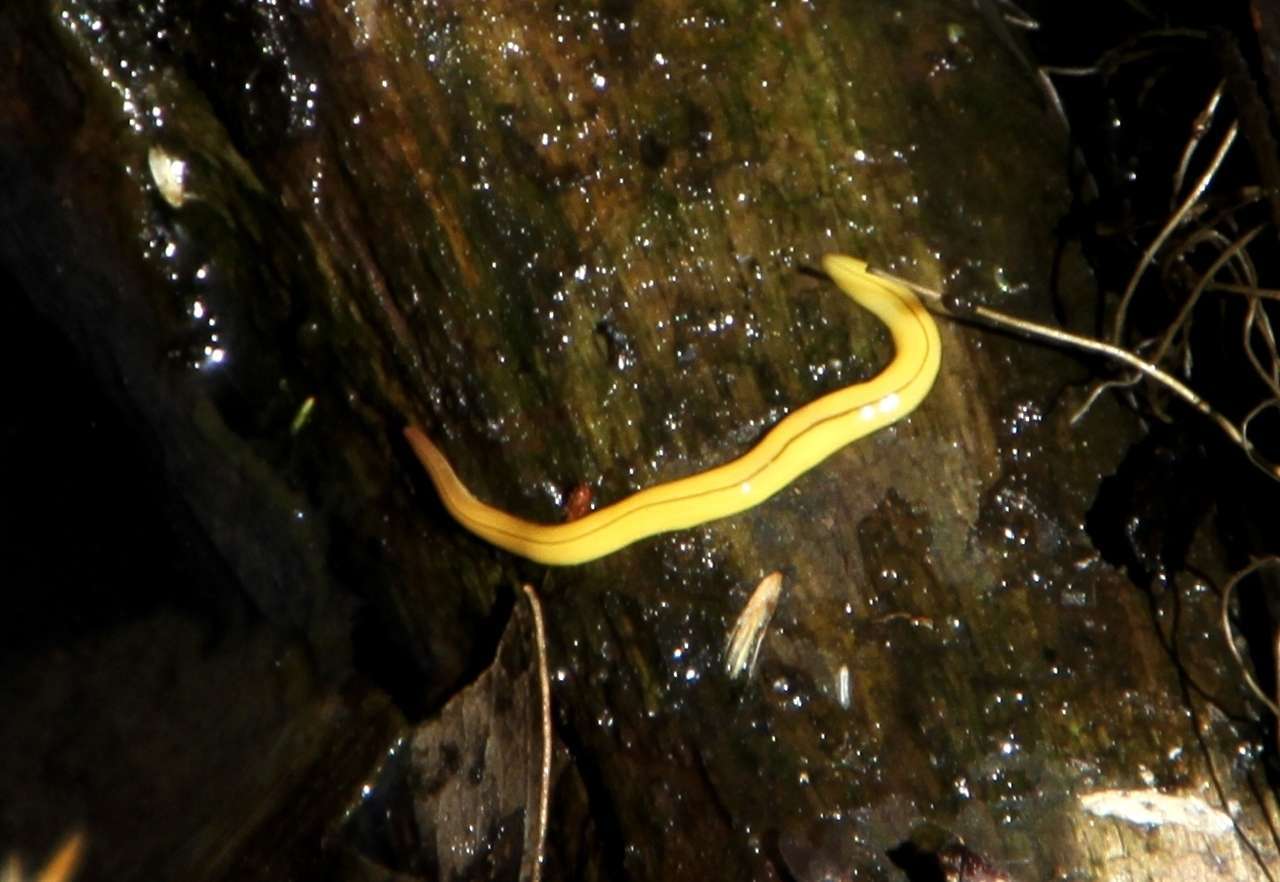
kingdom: Animalia
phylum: Platyhelminthes
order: Tricladida
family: Geoplanidae
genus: Fletchamia
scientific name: Fletchamia mediolineata
